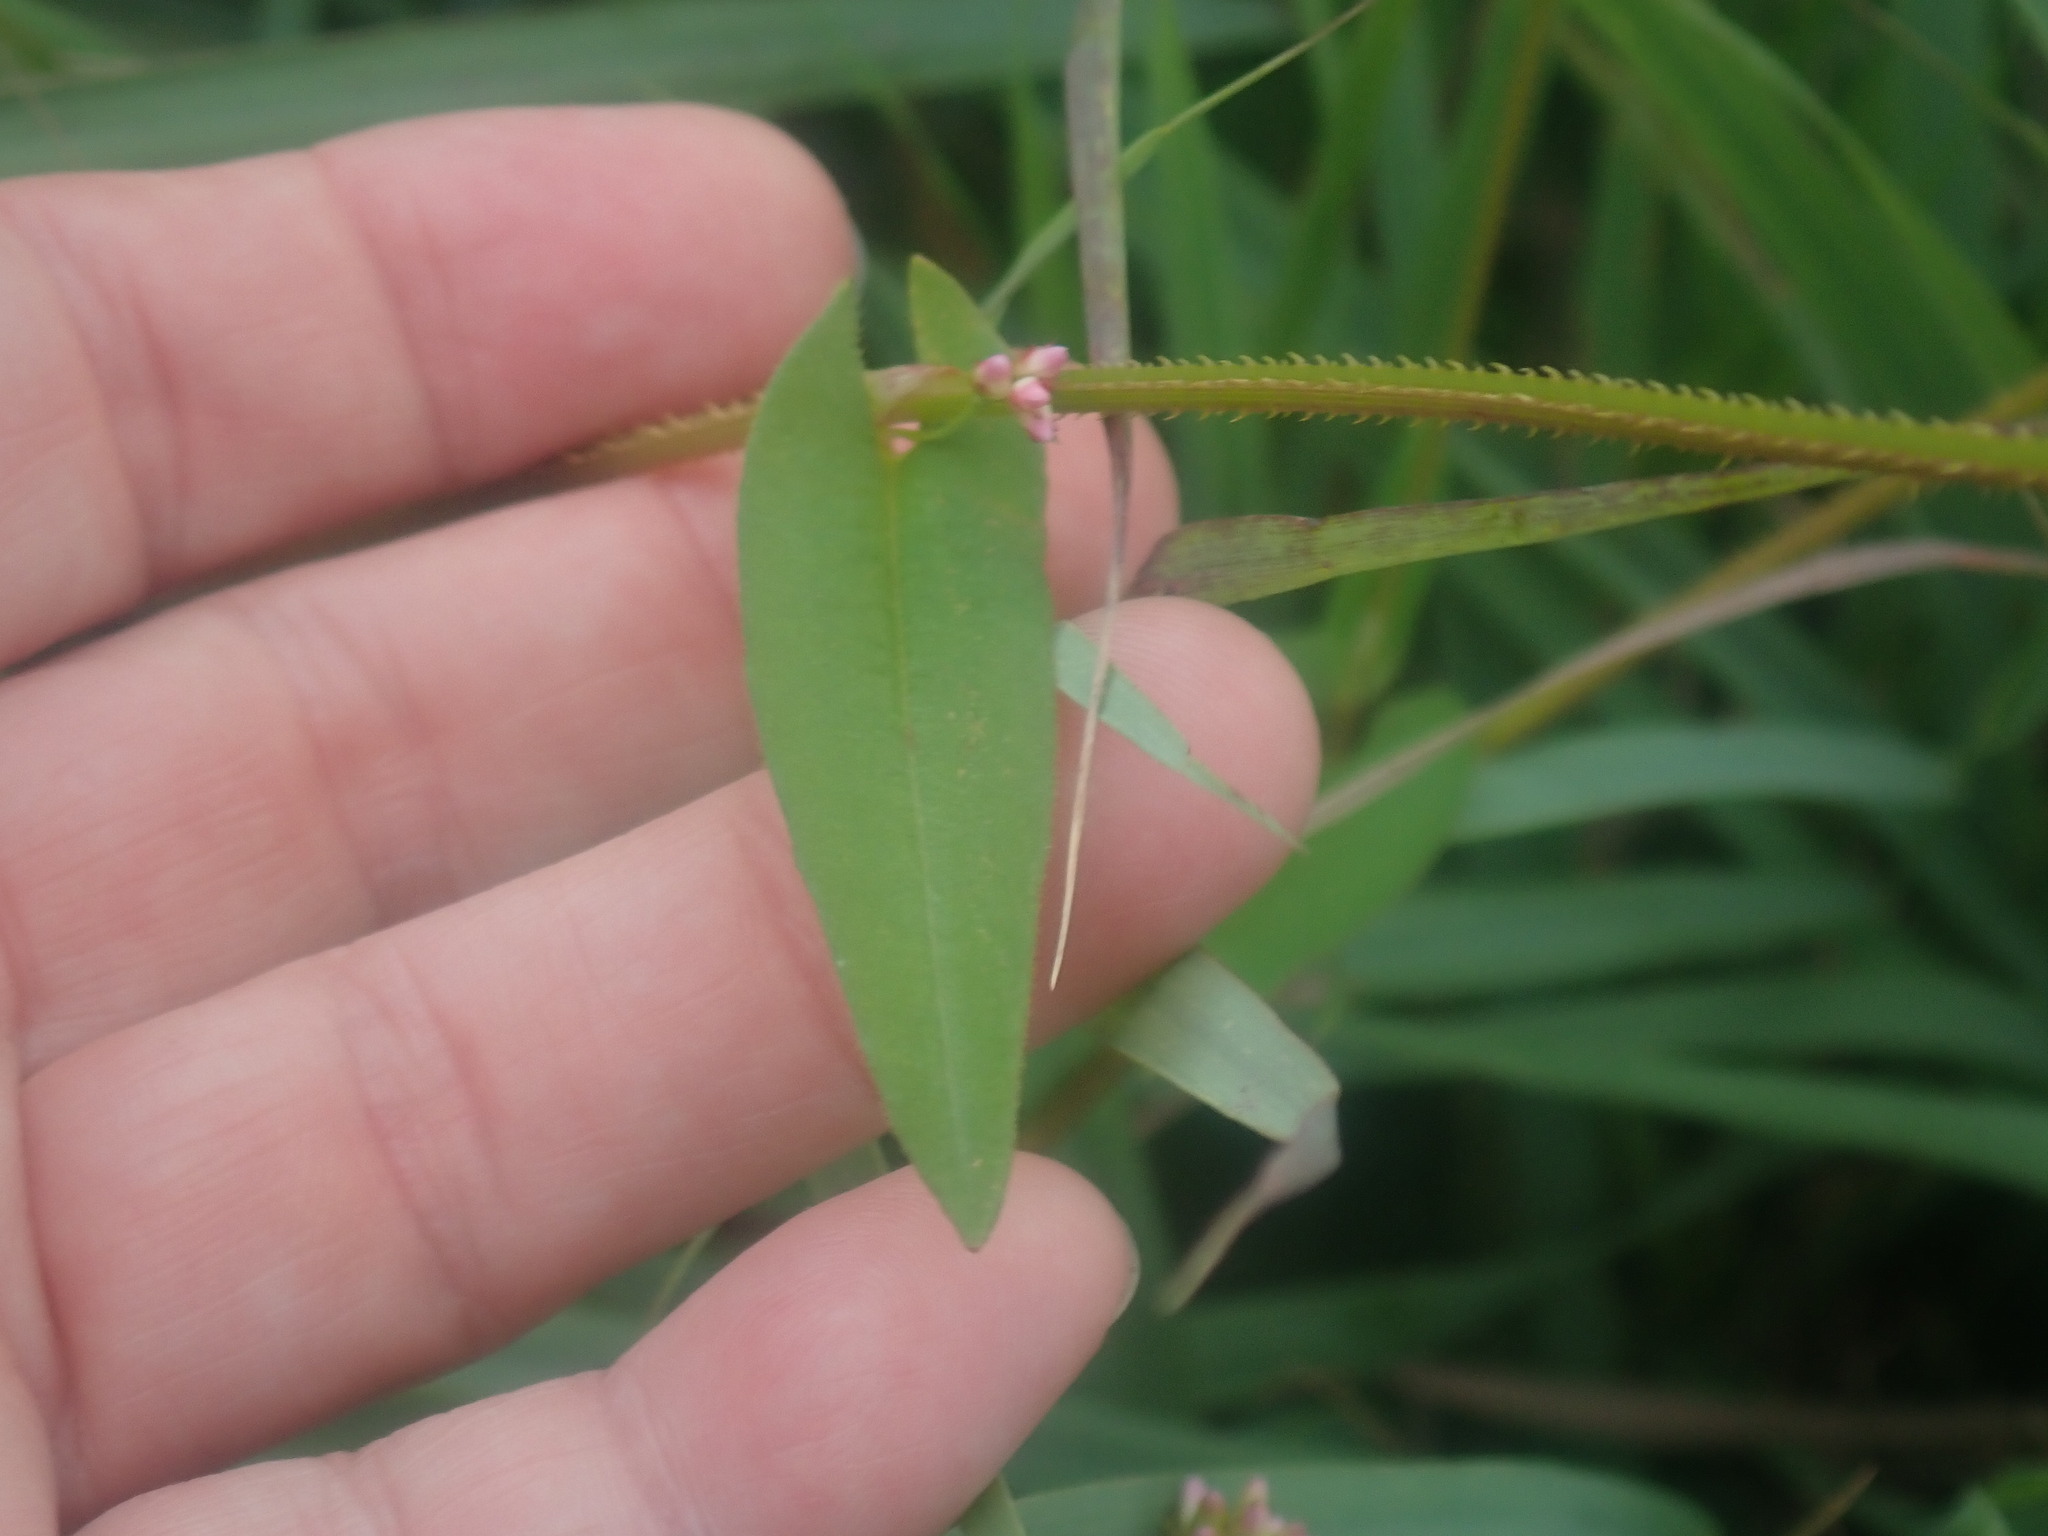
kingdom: Plantae
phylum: Tracheophyta
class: Magnoliopsida
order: Caryophyllales
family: Polygonaceae
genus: Persicaria
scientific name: Persicaria sagittata
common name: American tearthumb
